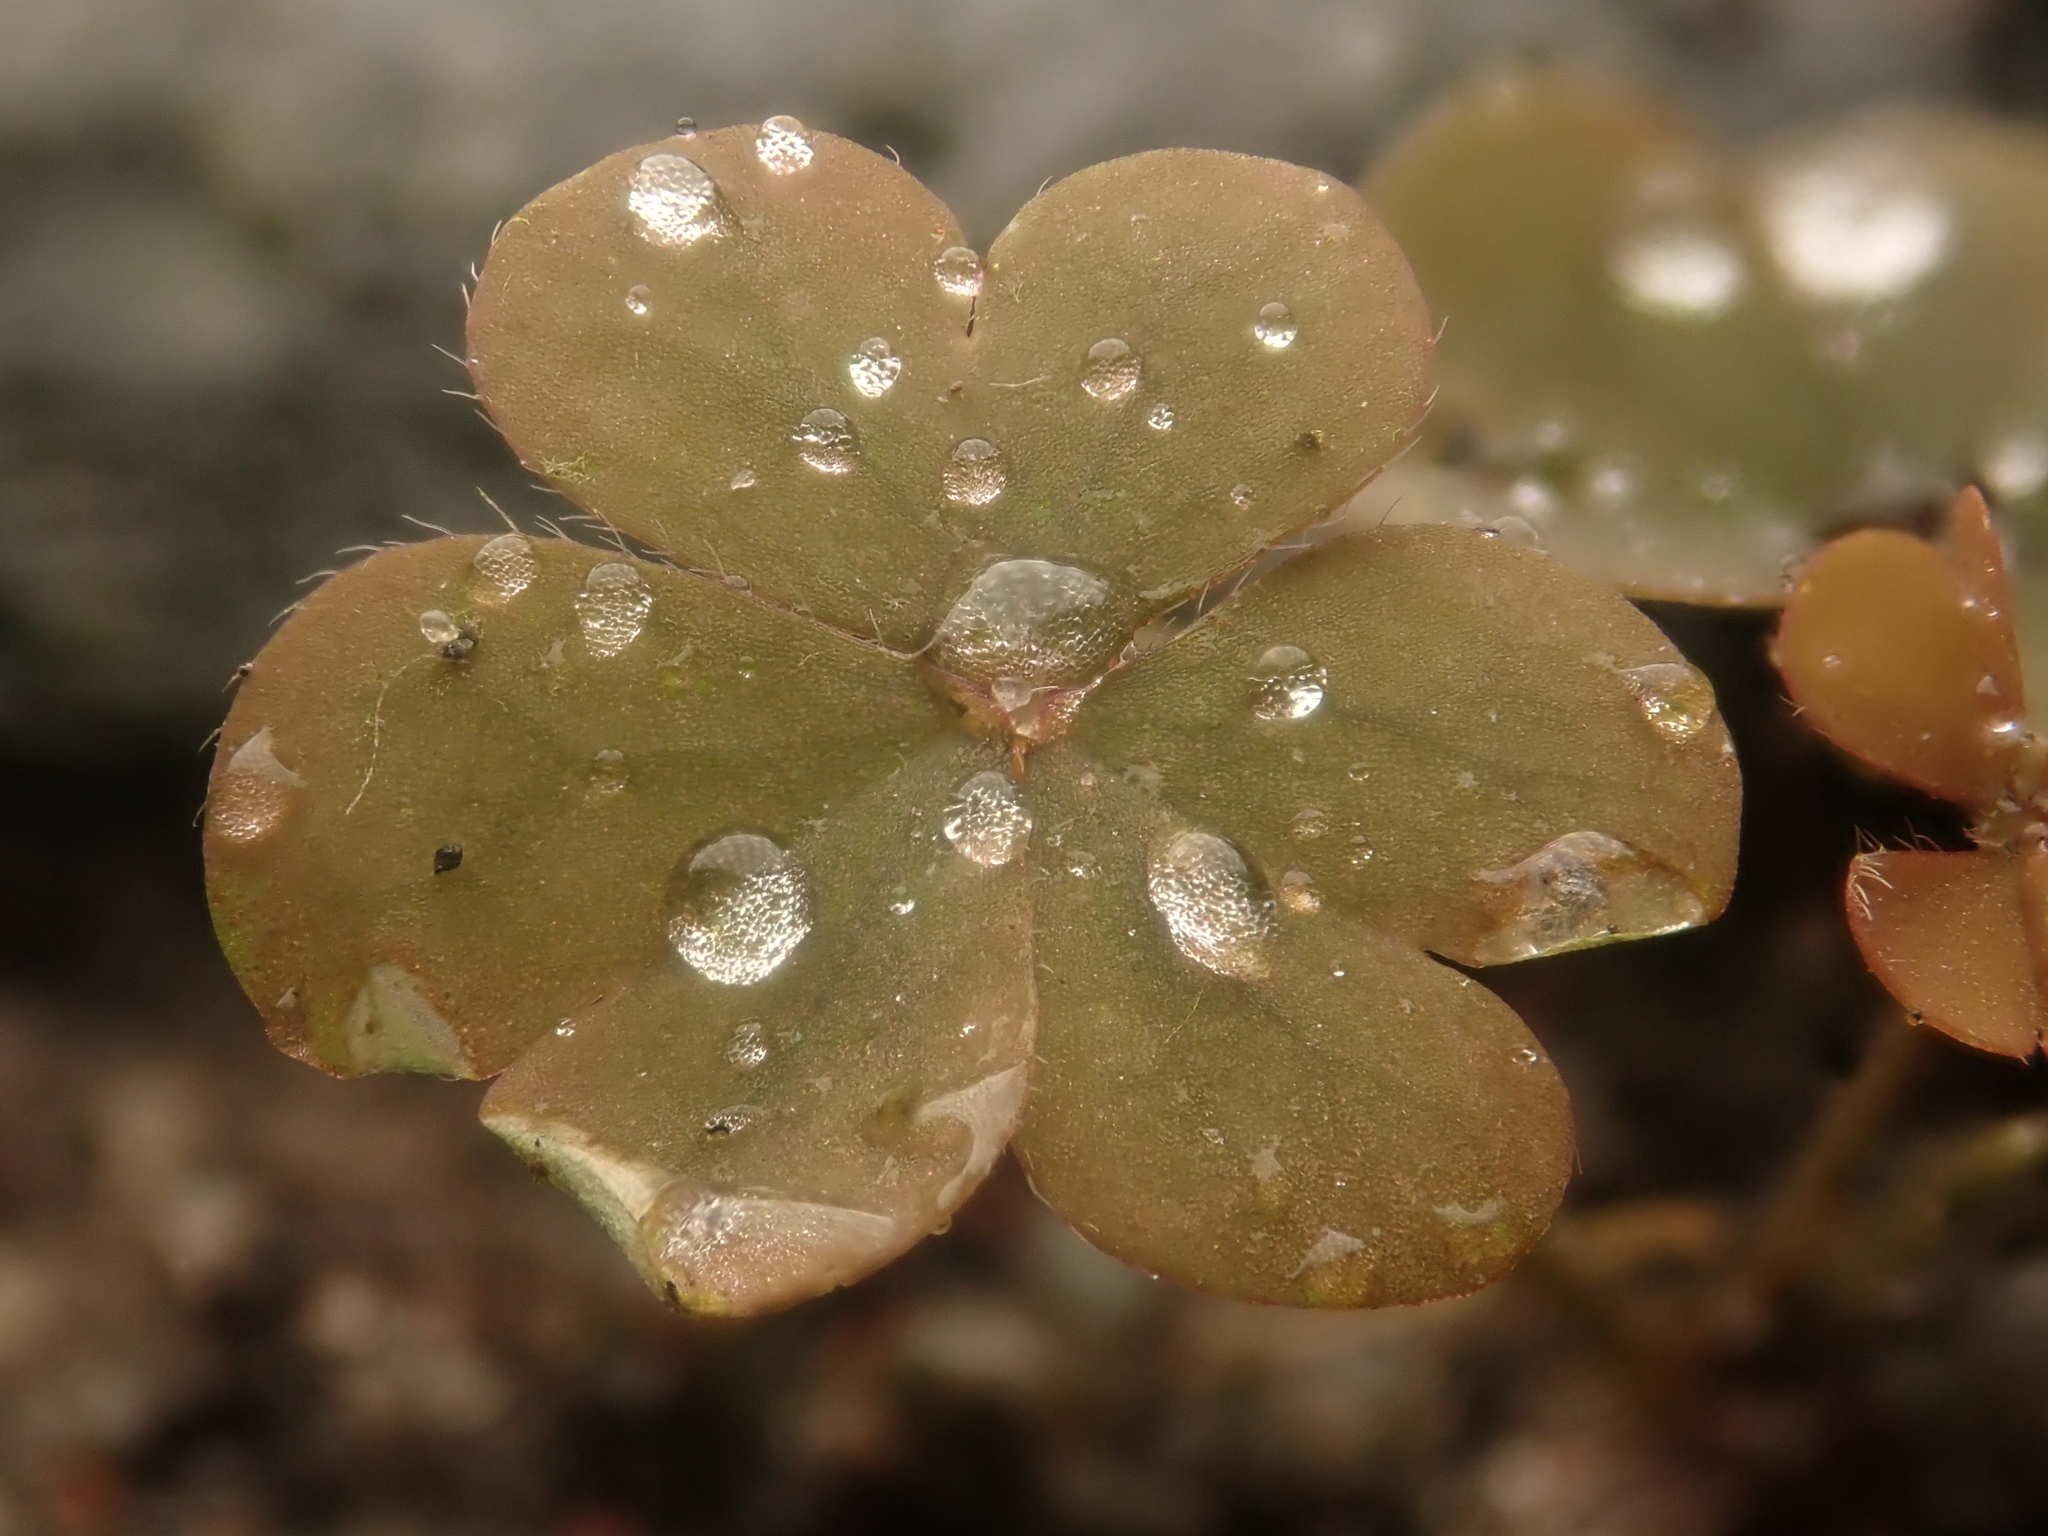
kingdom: Plantae
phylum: Tracheophyta
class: Magnoliopsida
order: Oxalidales
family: Oxalidaceae
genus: Oxalis
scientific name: Oxalis corniculata
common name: Procumbent yellow-sorrel
